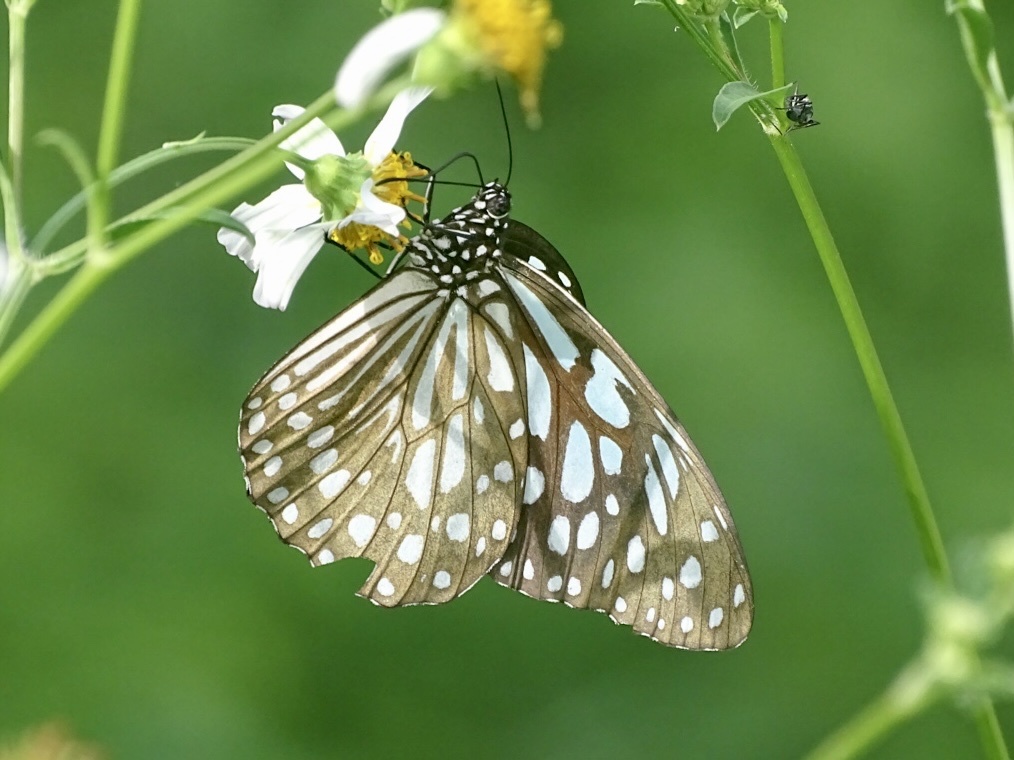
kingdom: Animalia
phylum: Arthropoda
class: Insecta
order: Lepidoptera
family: Nymphalidae
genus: Tirumala
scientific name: Tirumala limniace
